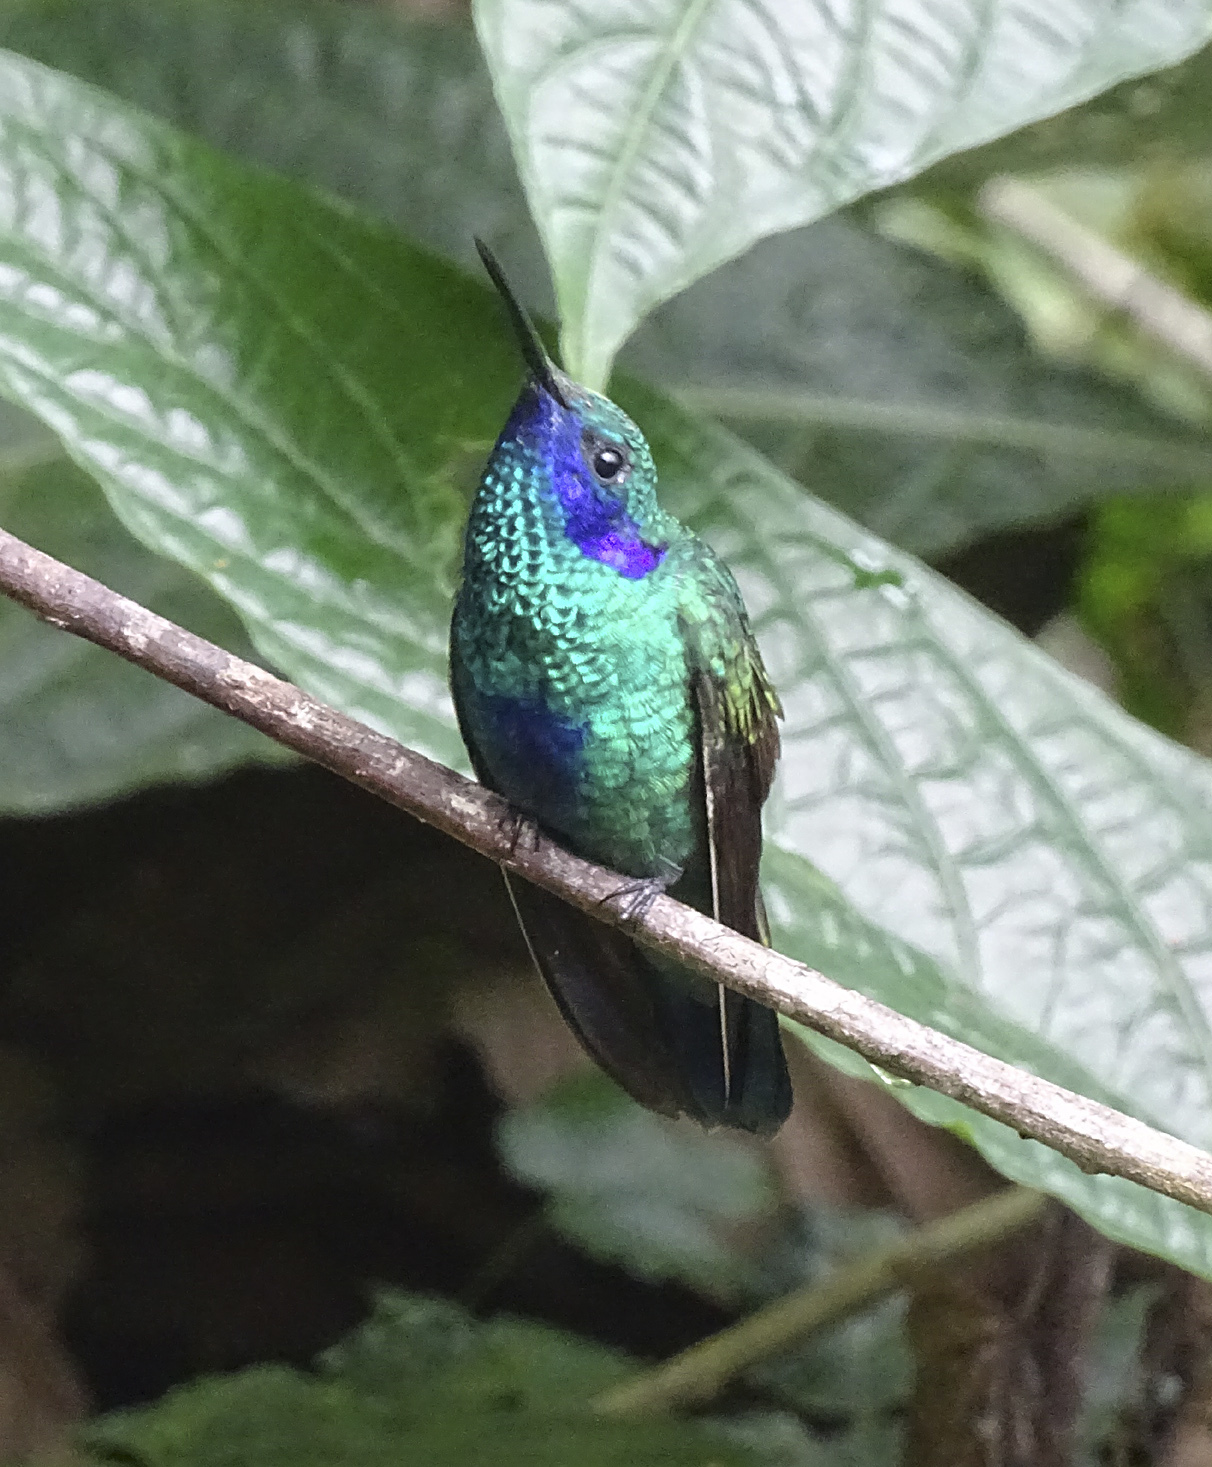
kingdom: Animalia
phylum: Chordata
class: Aves
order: Apodiformes
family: Trochilidae
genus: Colibri
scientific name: Colibri coruscans
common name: Sparkling violetear
